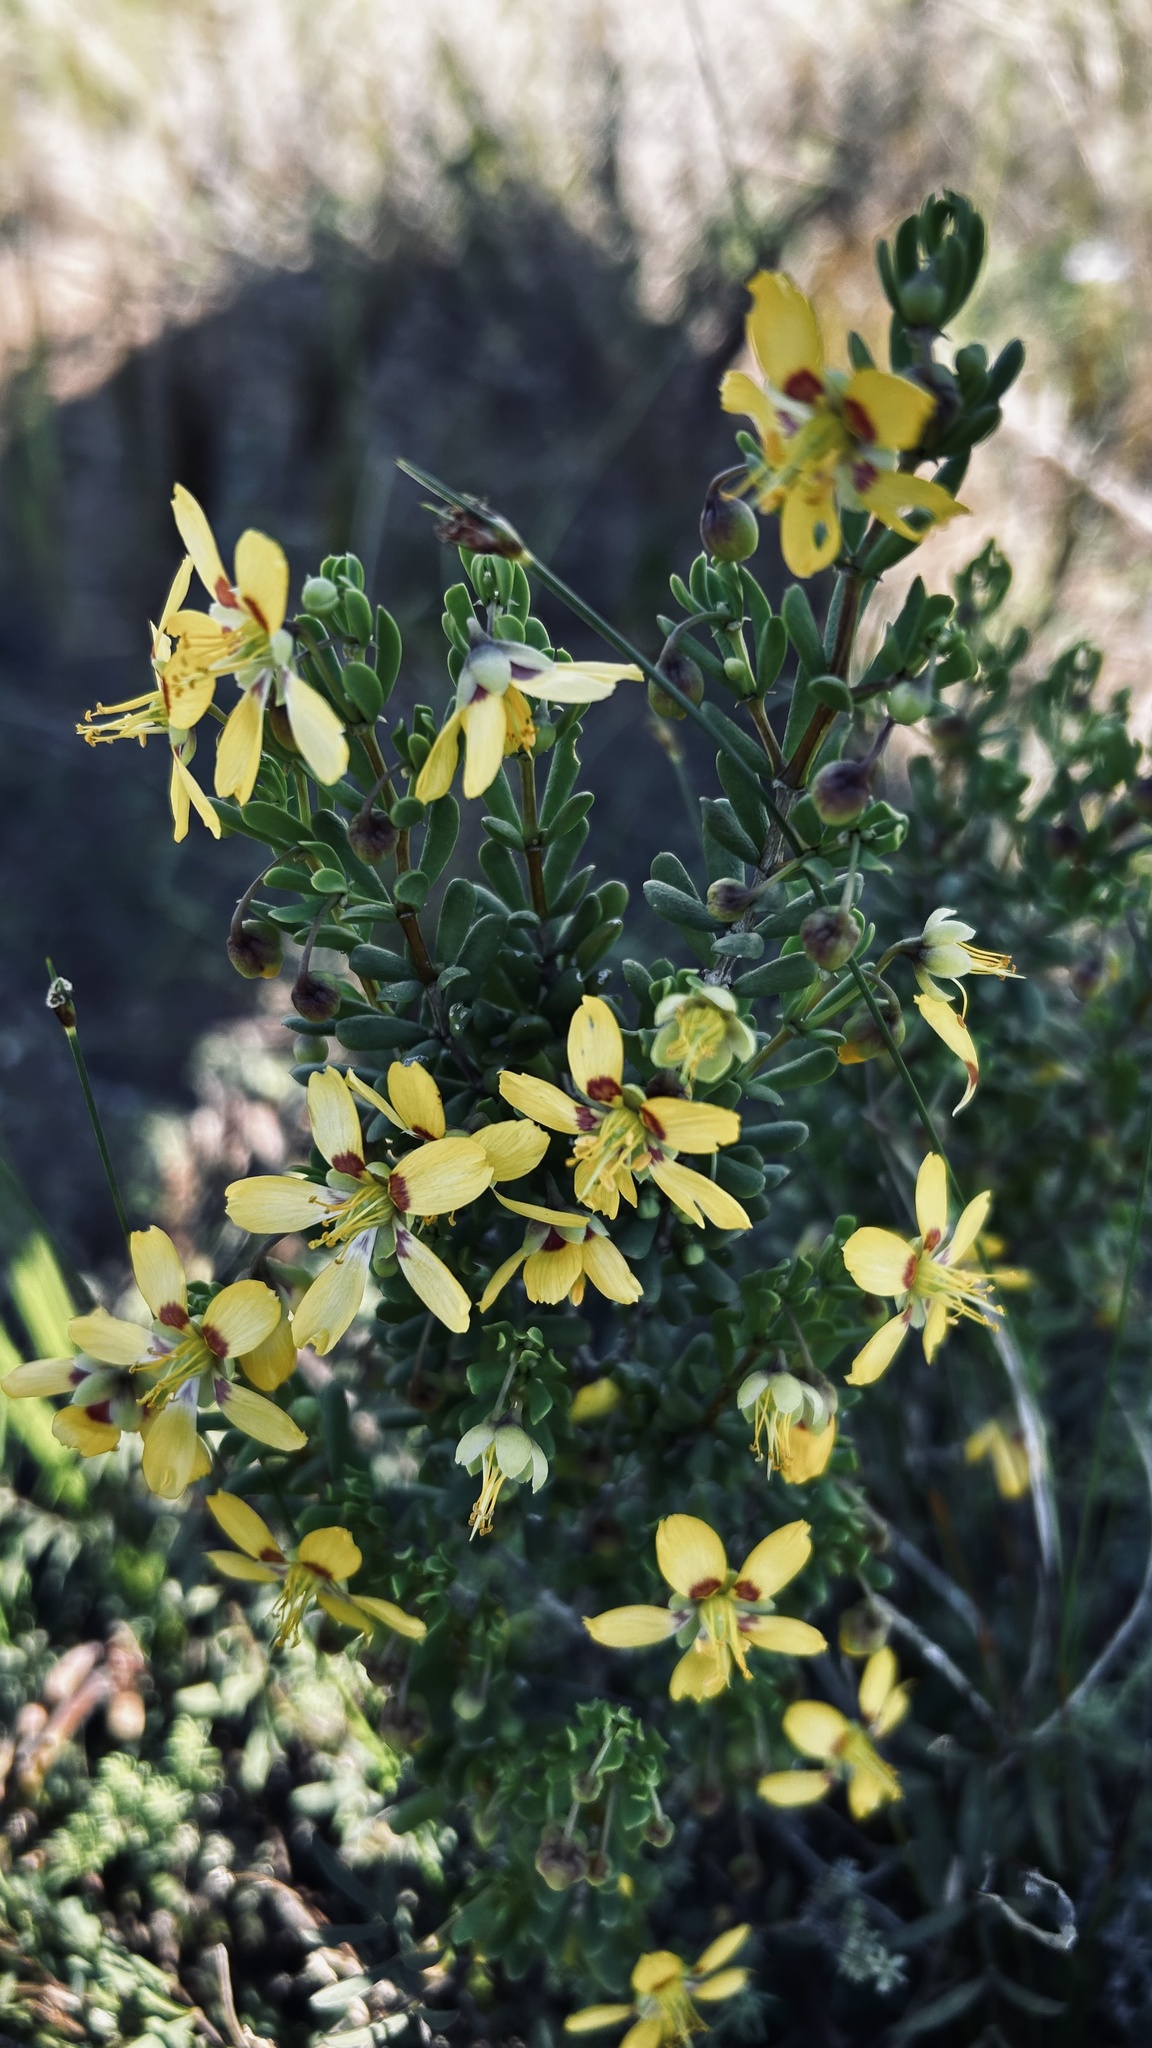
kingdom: Plantae
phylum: Tracheophyta
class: Magnoliopsida
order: Zygophyllales
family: Zygophyllaceae
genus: Roepera
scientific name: Roepera flexuosa
